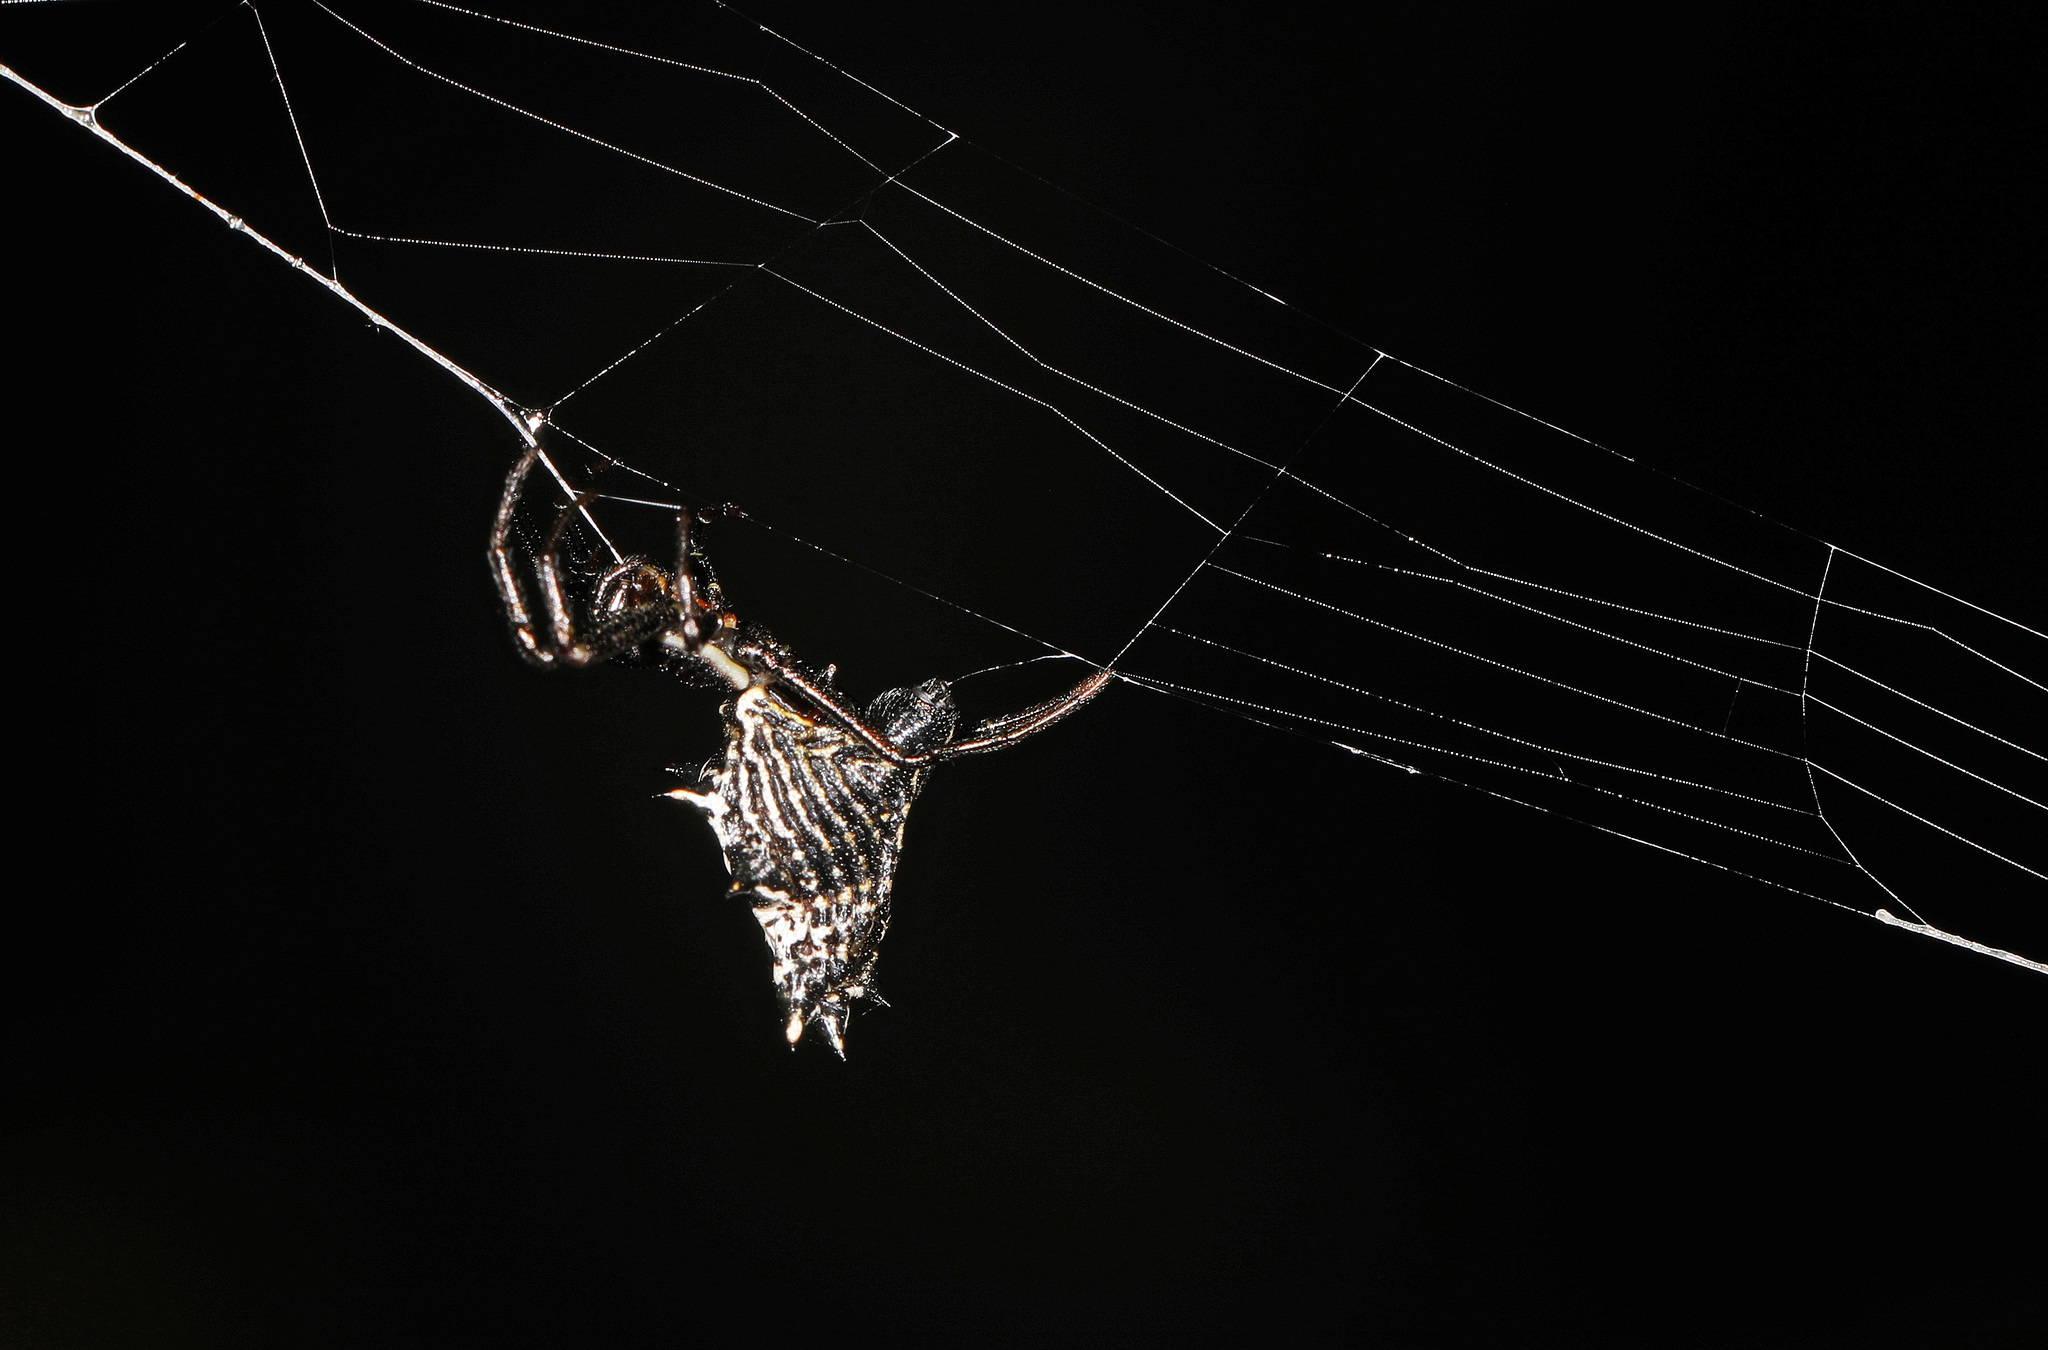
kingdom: Animalia
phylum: Arthropoda
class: Arachnida
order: Araneae
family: Araneidae
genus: Micrathena
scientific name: Micrathena gracilis
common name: Orb weavers
